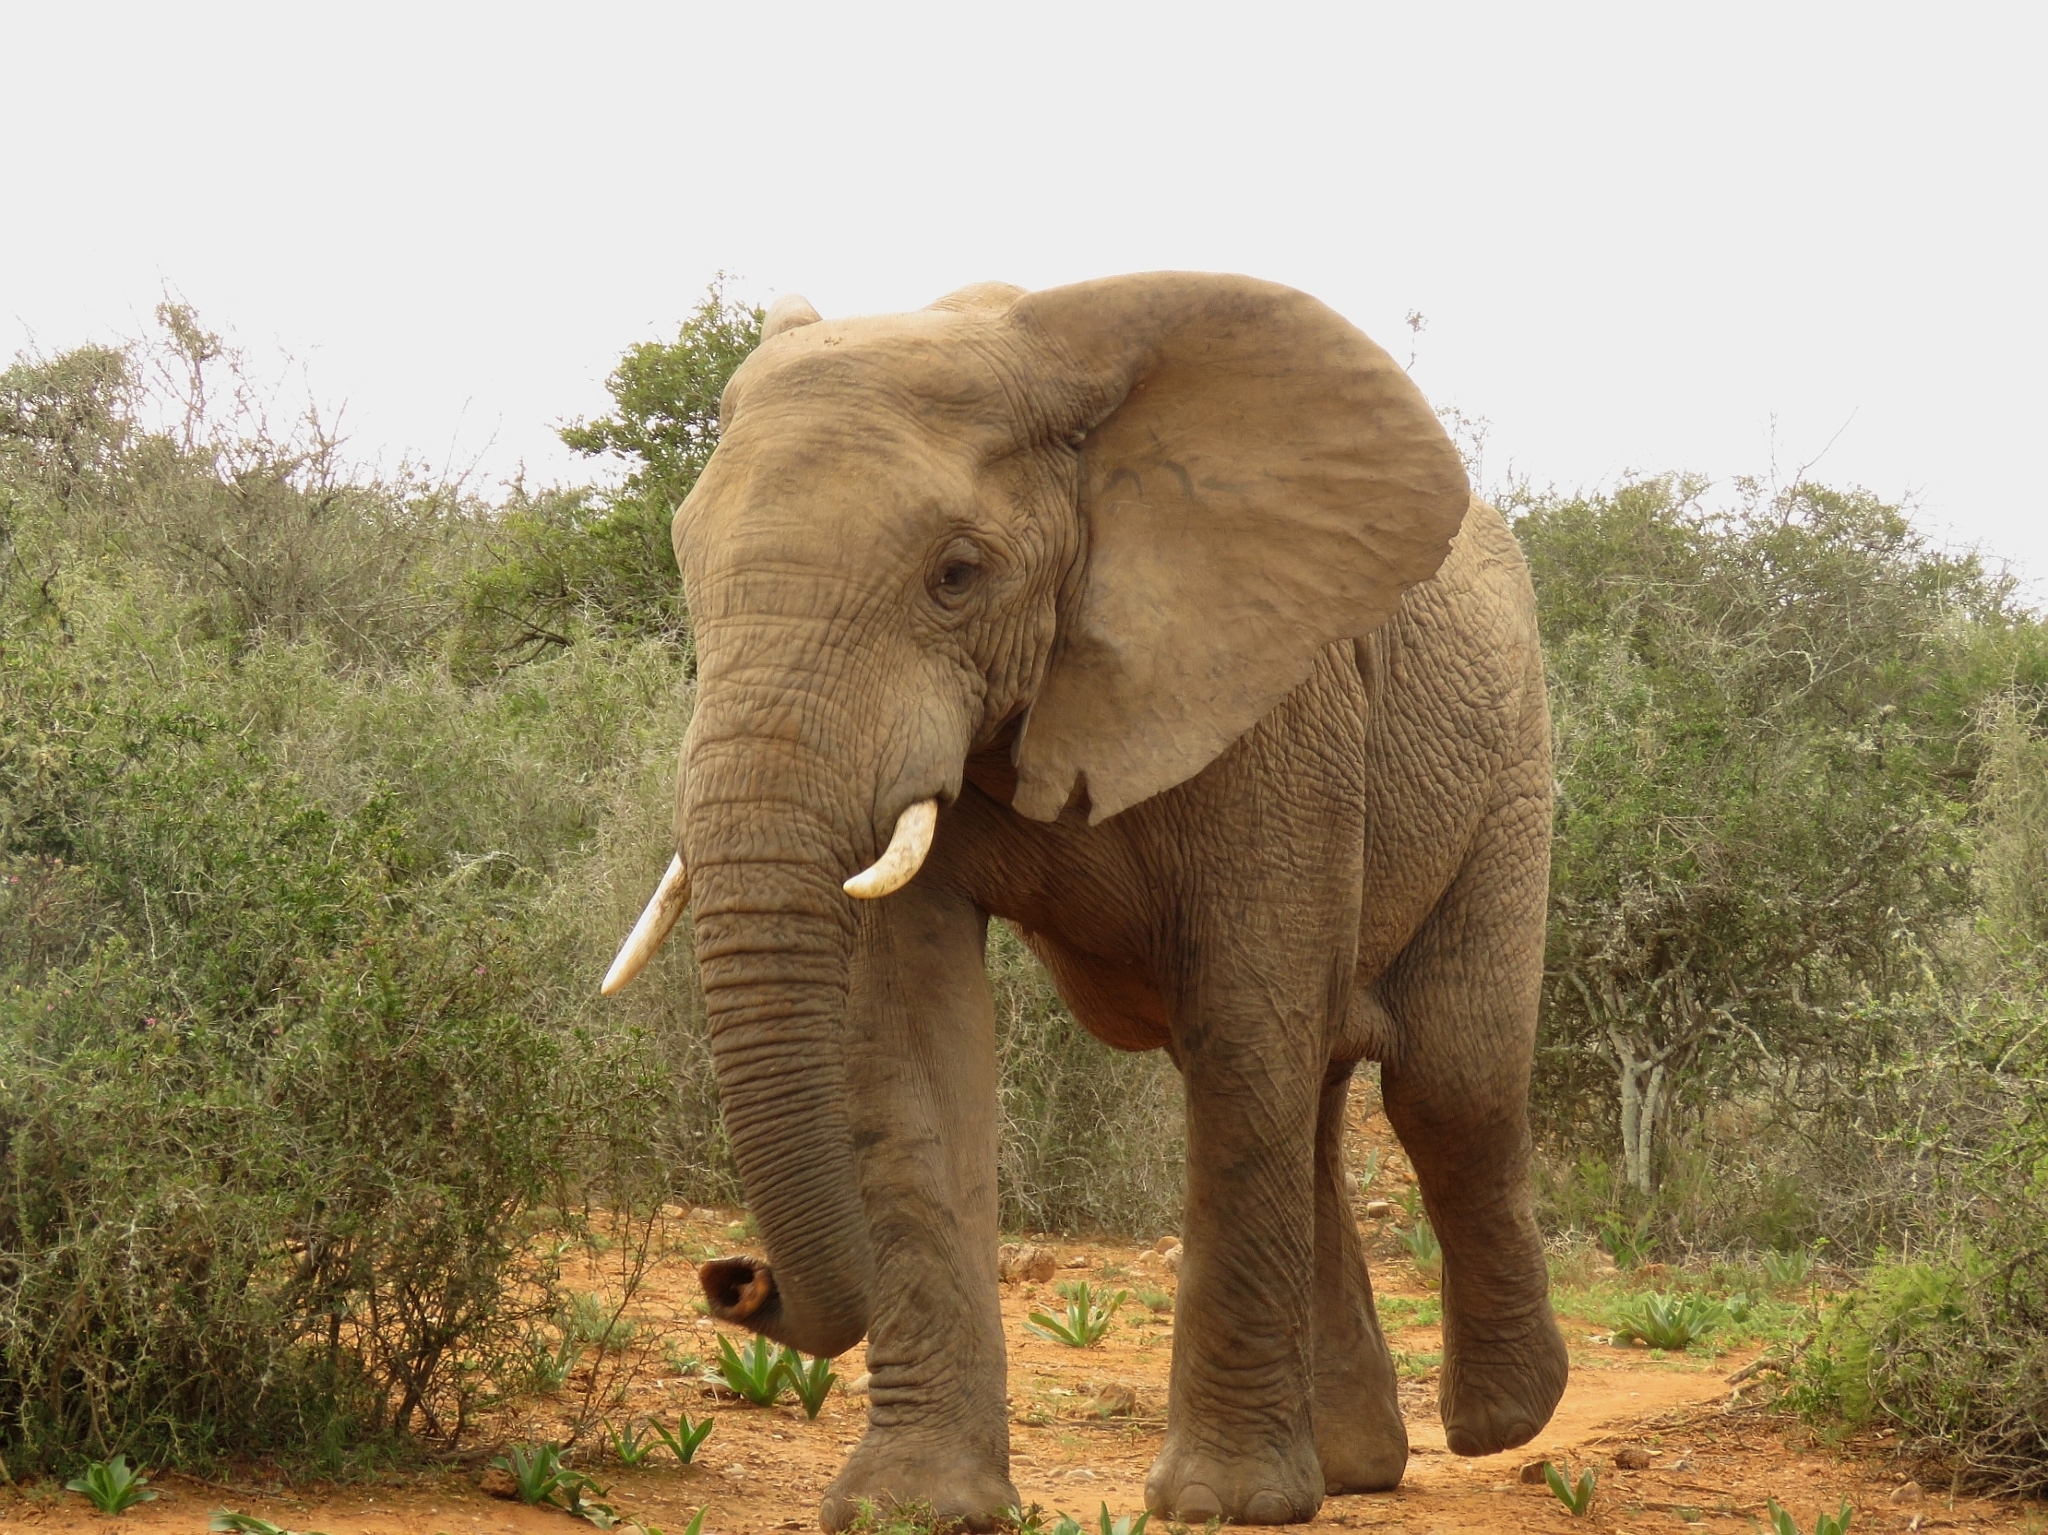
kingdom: Animalia
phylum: Chordata
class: Mammalia
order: Proboscidea
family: Elephantidae
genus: Loxodonta
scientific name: Loxodonta africana
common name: African elephant
